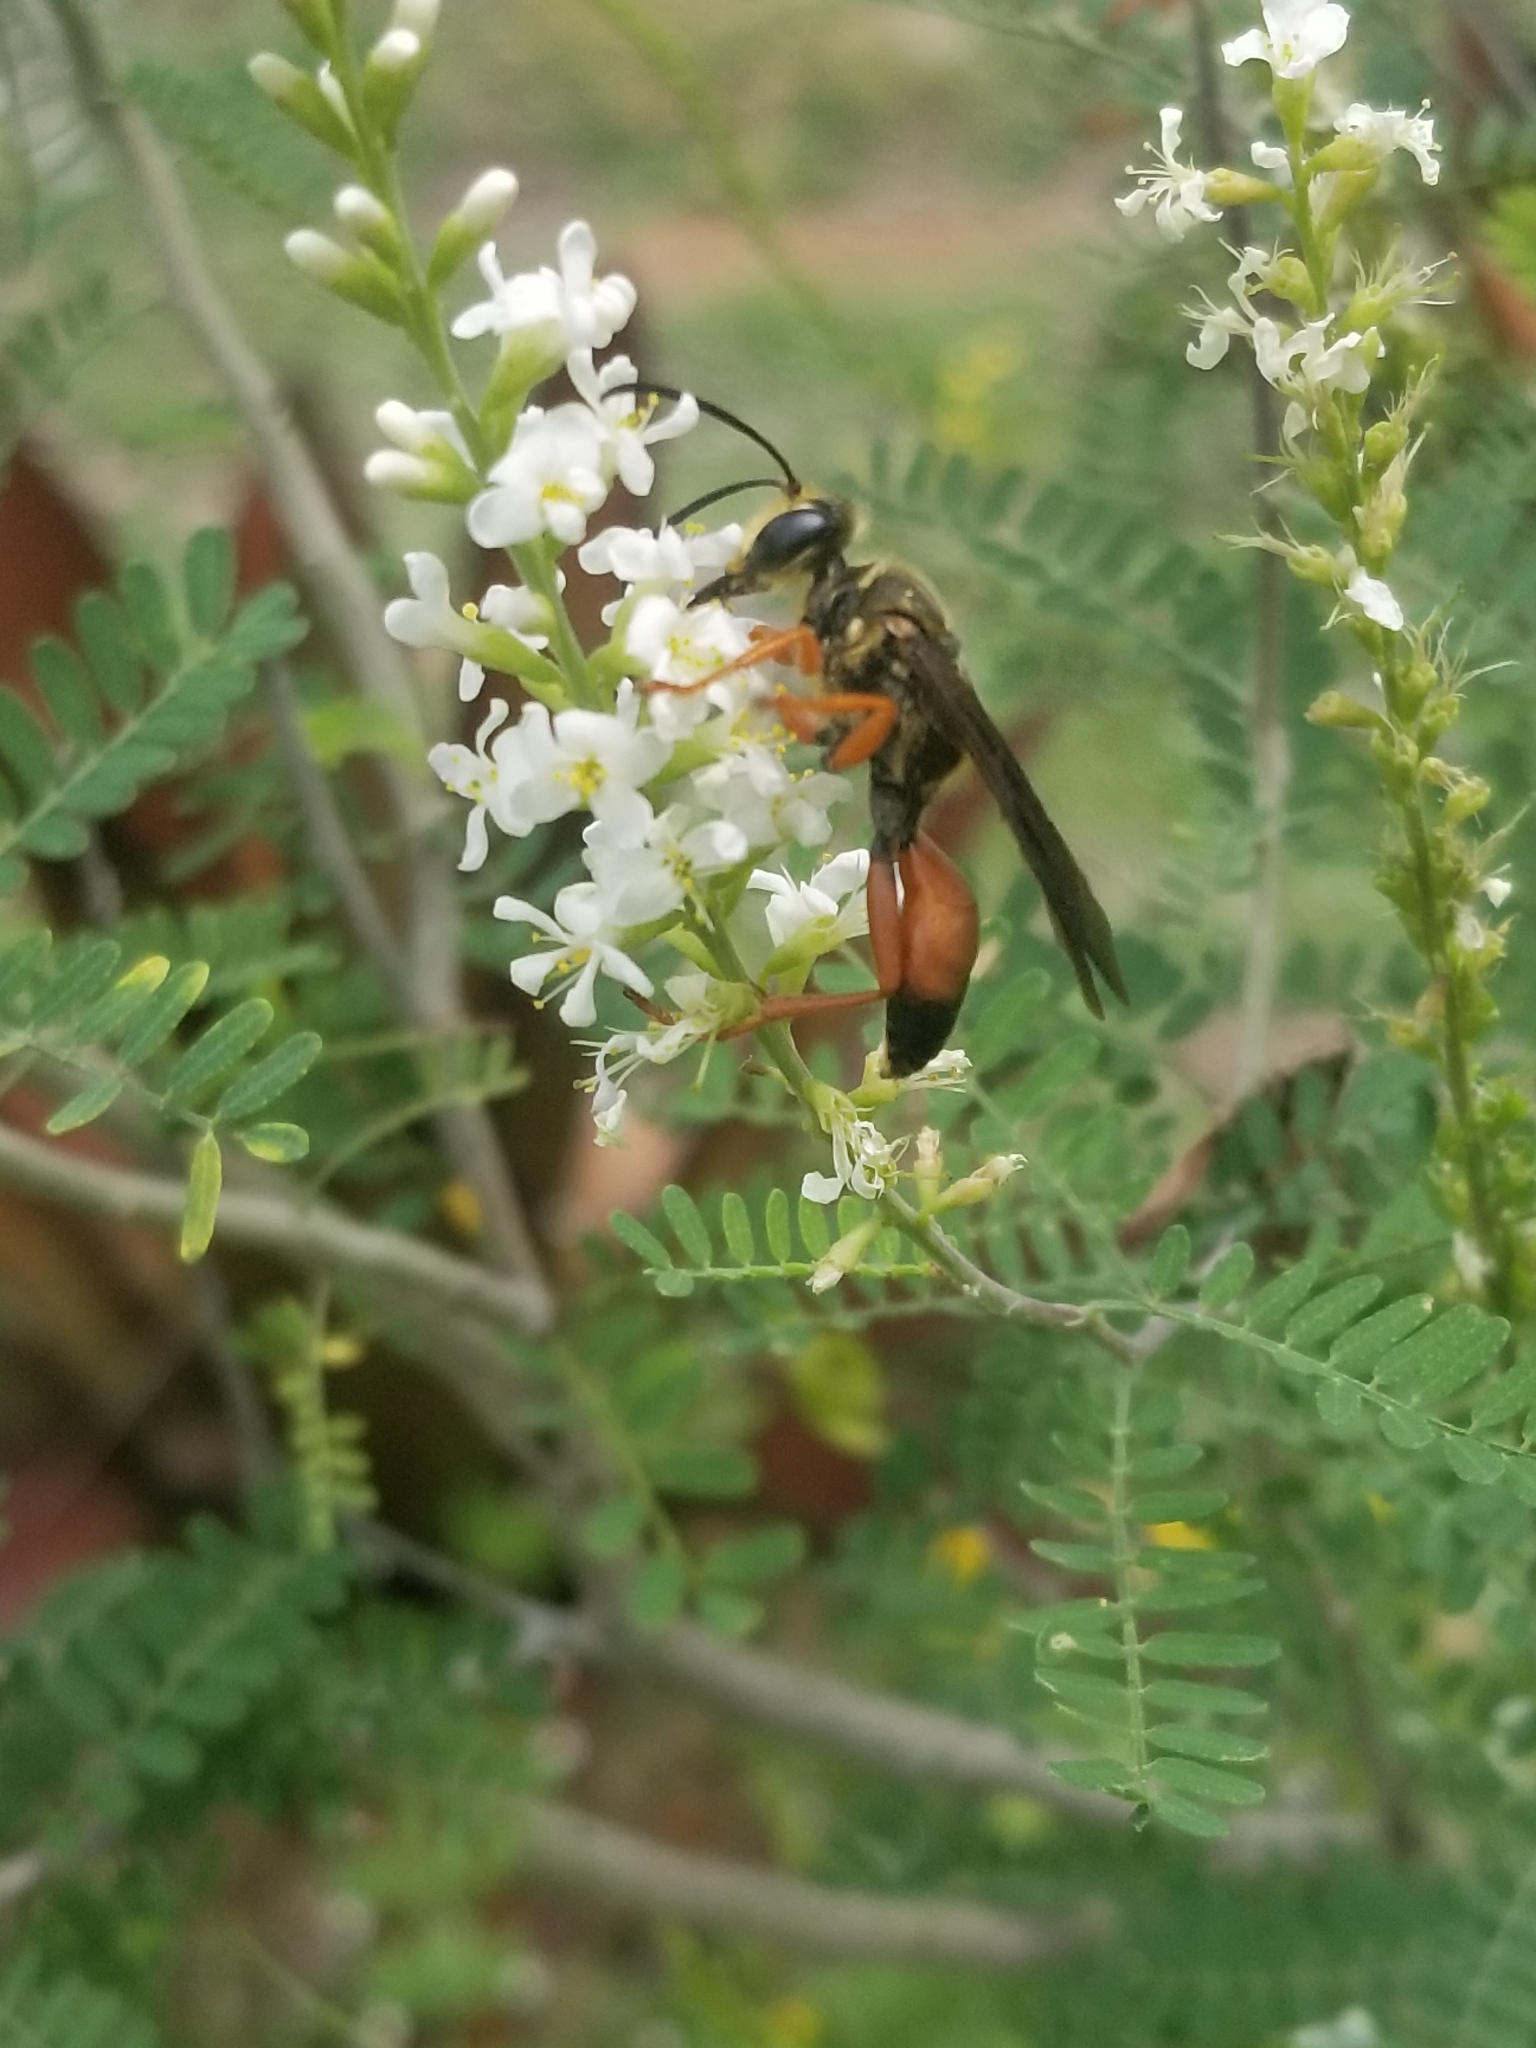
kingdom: Animalia
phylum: Arthropoda
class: Insecta
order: Hymenoptera
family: Sphecidae
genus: Sphex
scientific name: Sphex ichneumoneus
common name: Great golden digger wasp
